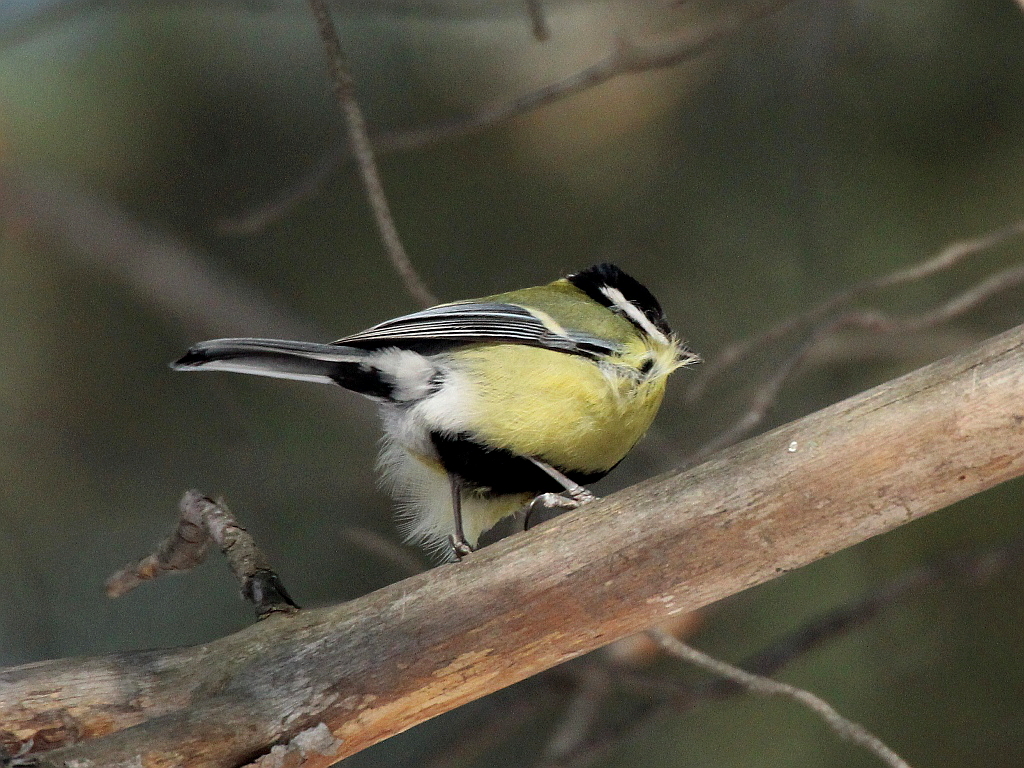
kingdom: Animalia
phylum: Chordata
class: Aves
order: Passeriformes
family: Paridae
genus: Parus
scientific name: Parus major
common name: Great tit
